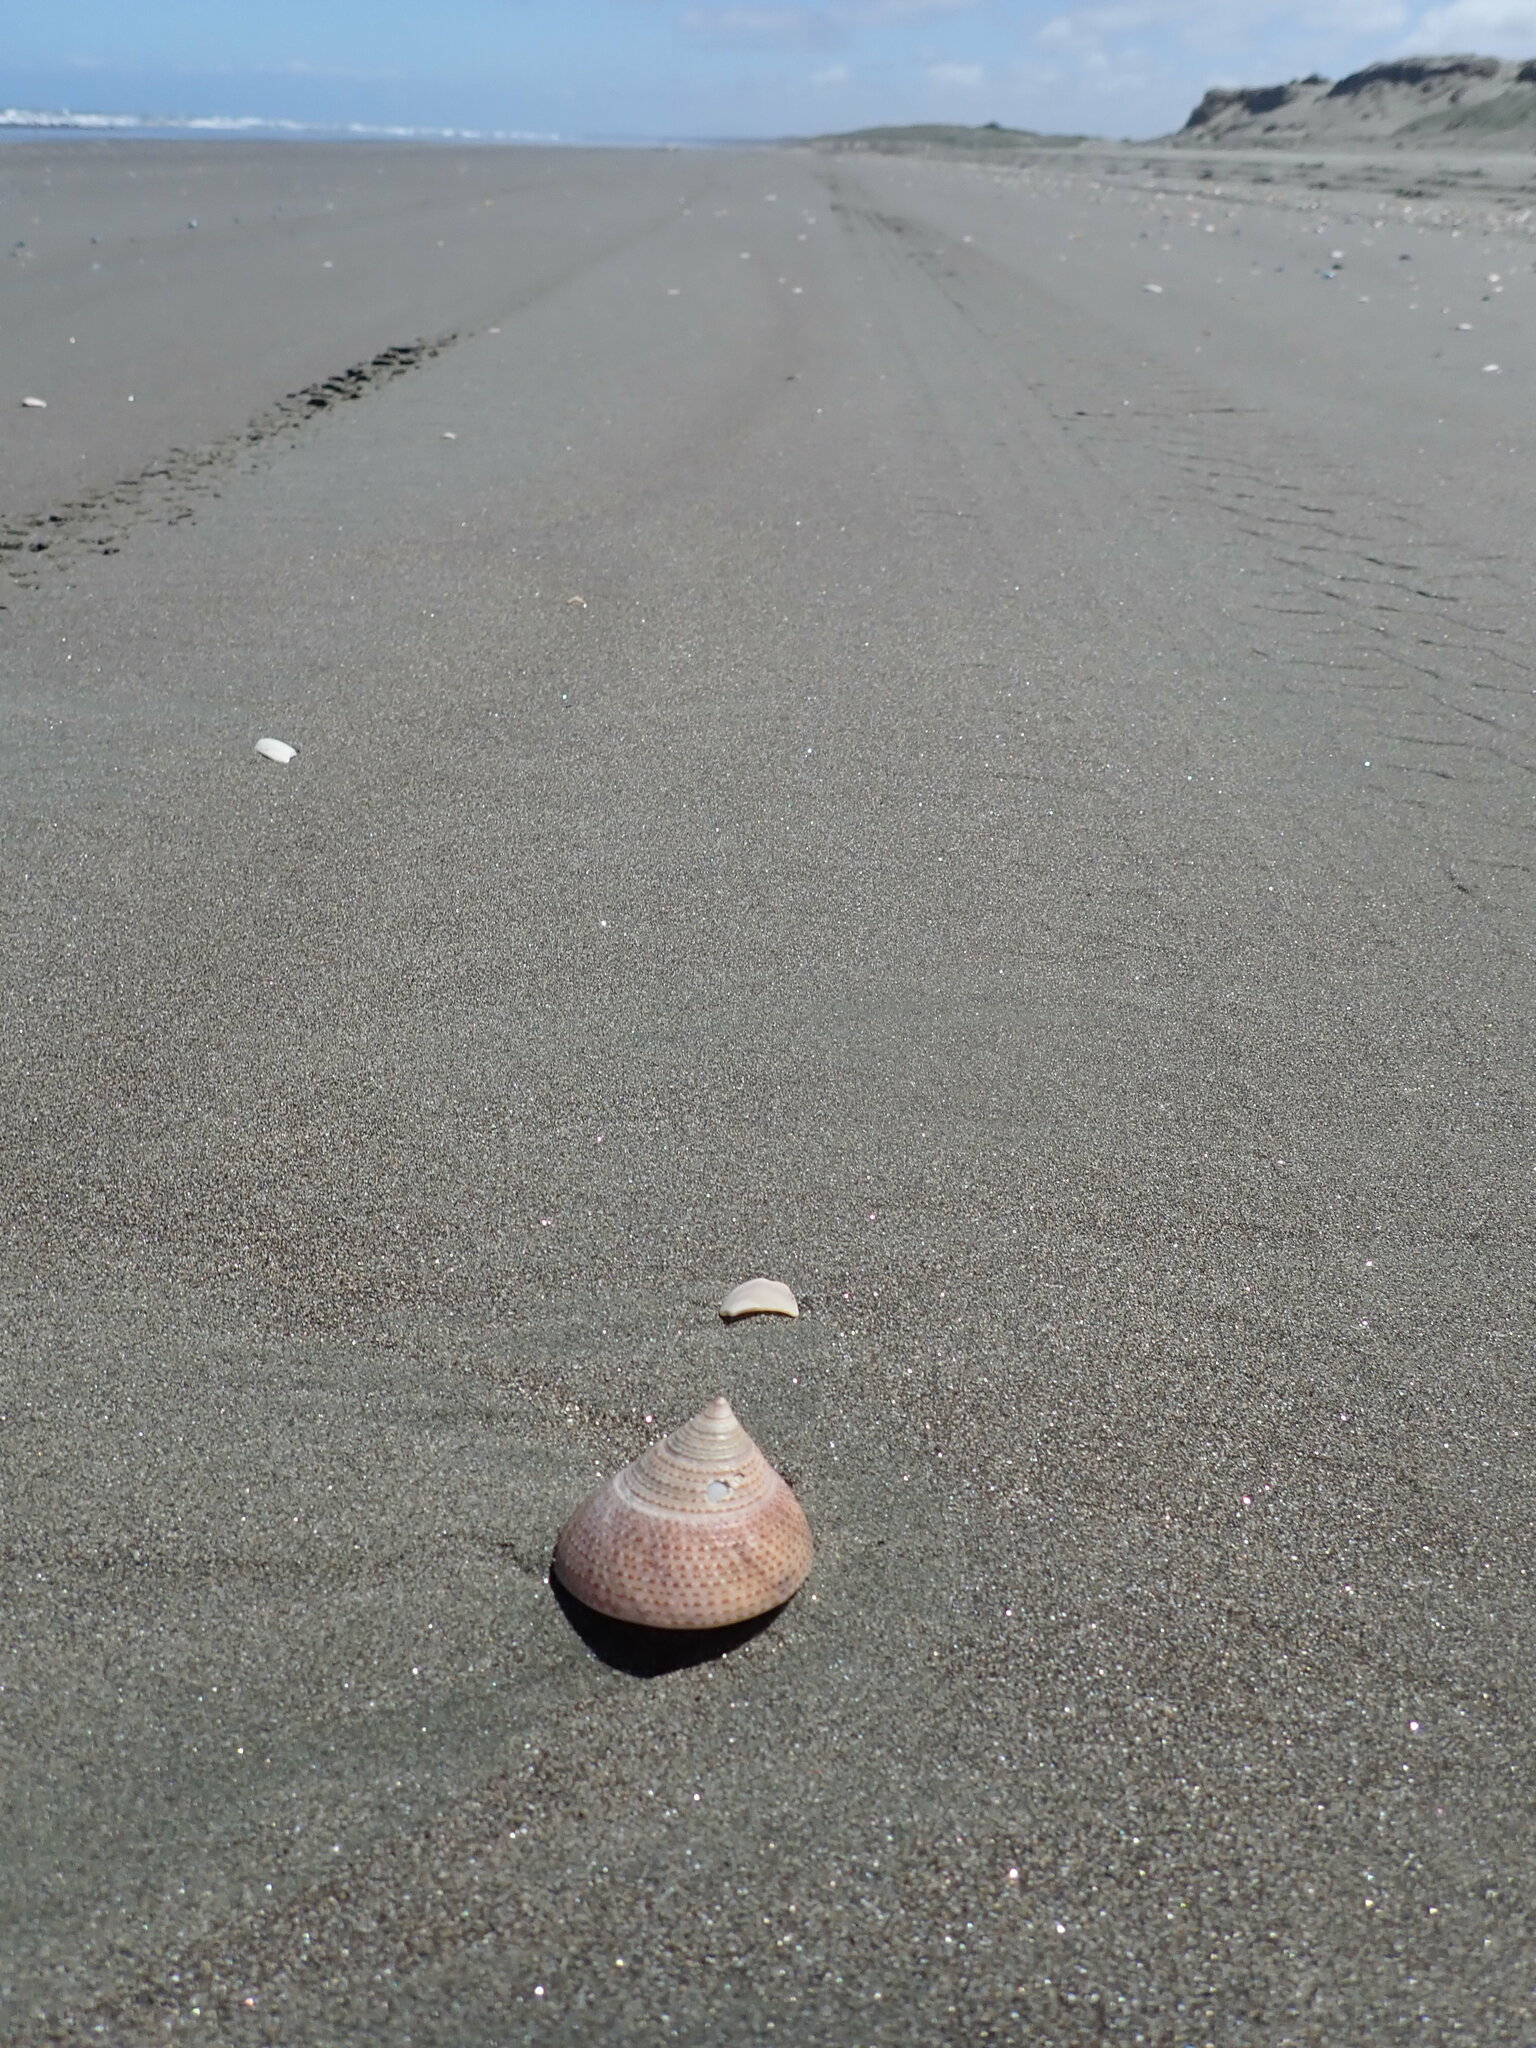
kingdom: Animalia
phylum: Mollusca
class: Gastropoda
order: Trochida
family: Calliostomatidae
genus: Maurea
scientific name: Maurea selecta
